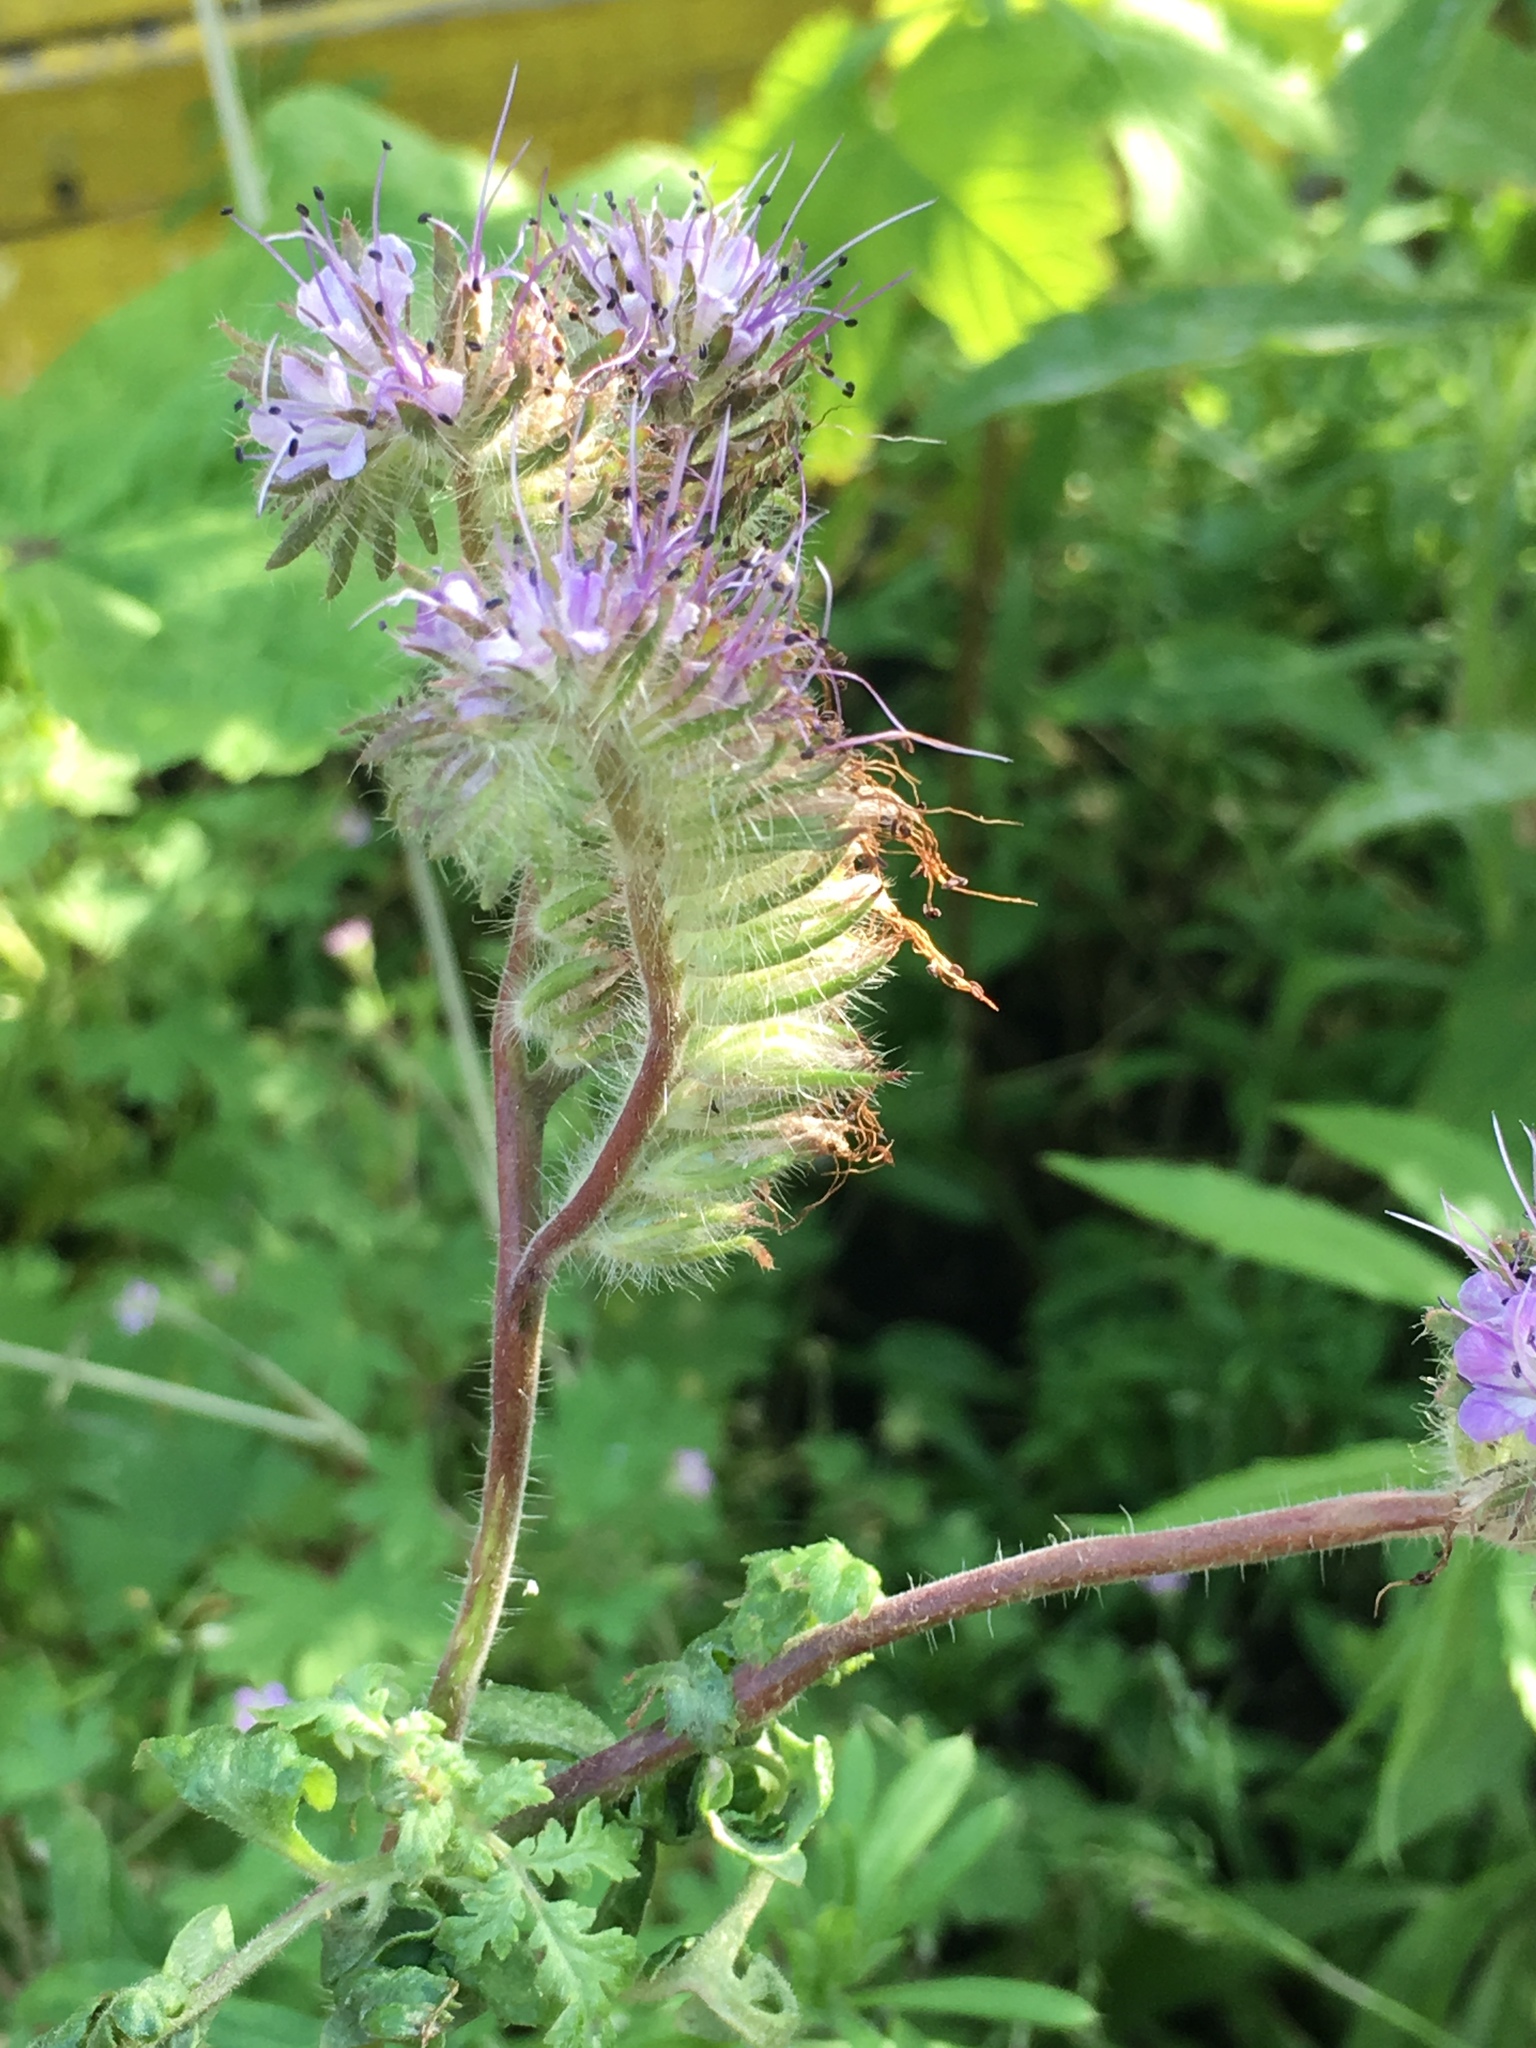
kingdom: Plantae
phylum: Tracheophyta
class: Magnoliopsida
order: Boraginales
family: Hydrophyllaceae
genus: Phacelia
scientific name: Phacelia tanacetifolia
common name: Phacelia
